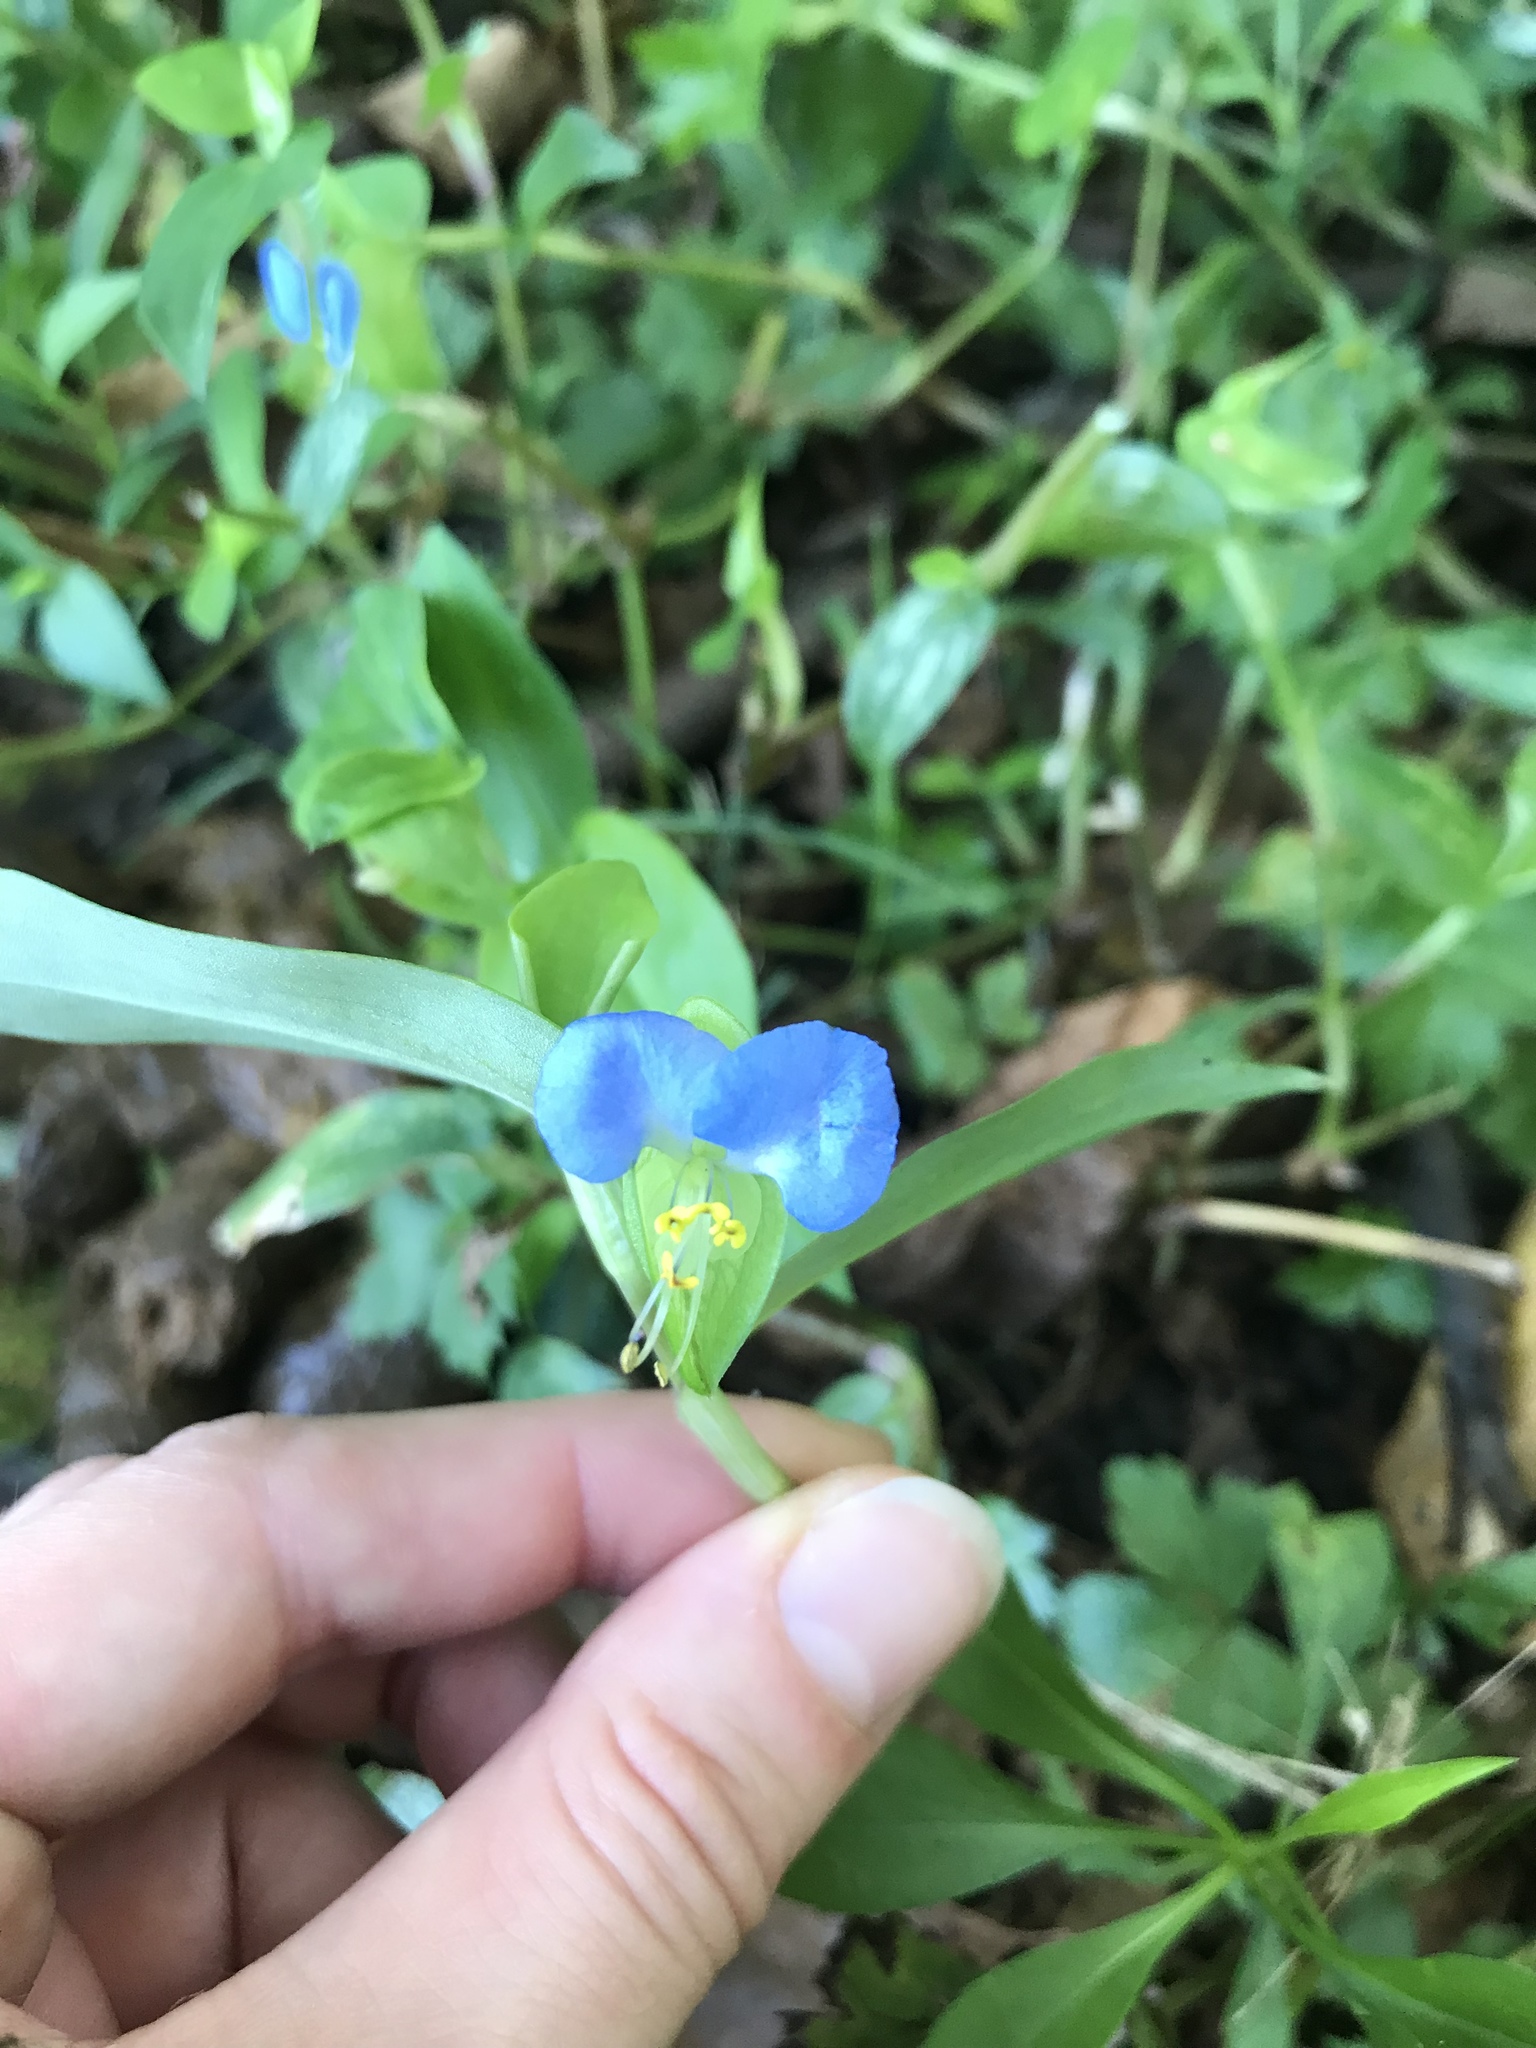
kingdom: Plantae
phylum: Tracheophyta
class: Liliopsida
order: Commelinales
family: Commelinaceae
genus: Commelina
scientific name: Commelina communis
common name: Asiatic dayflower
